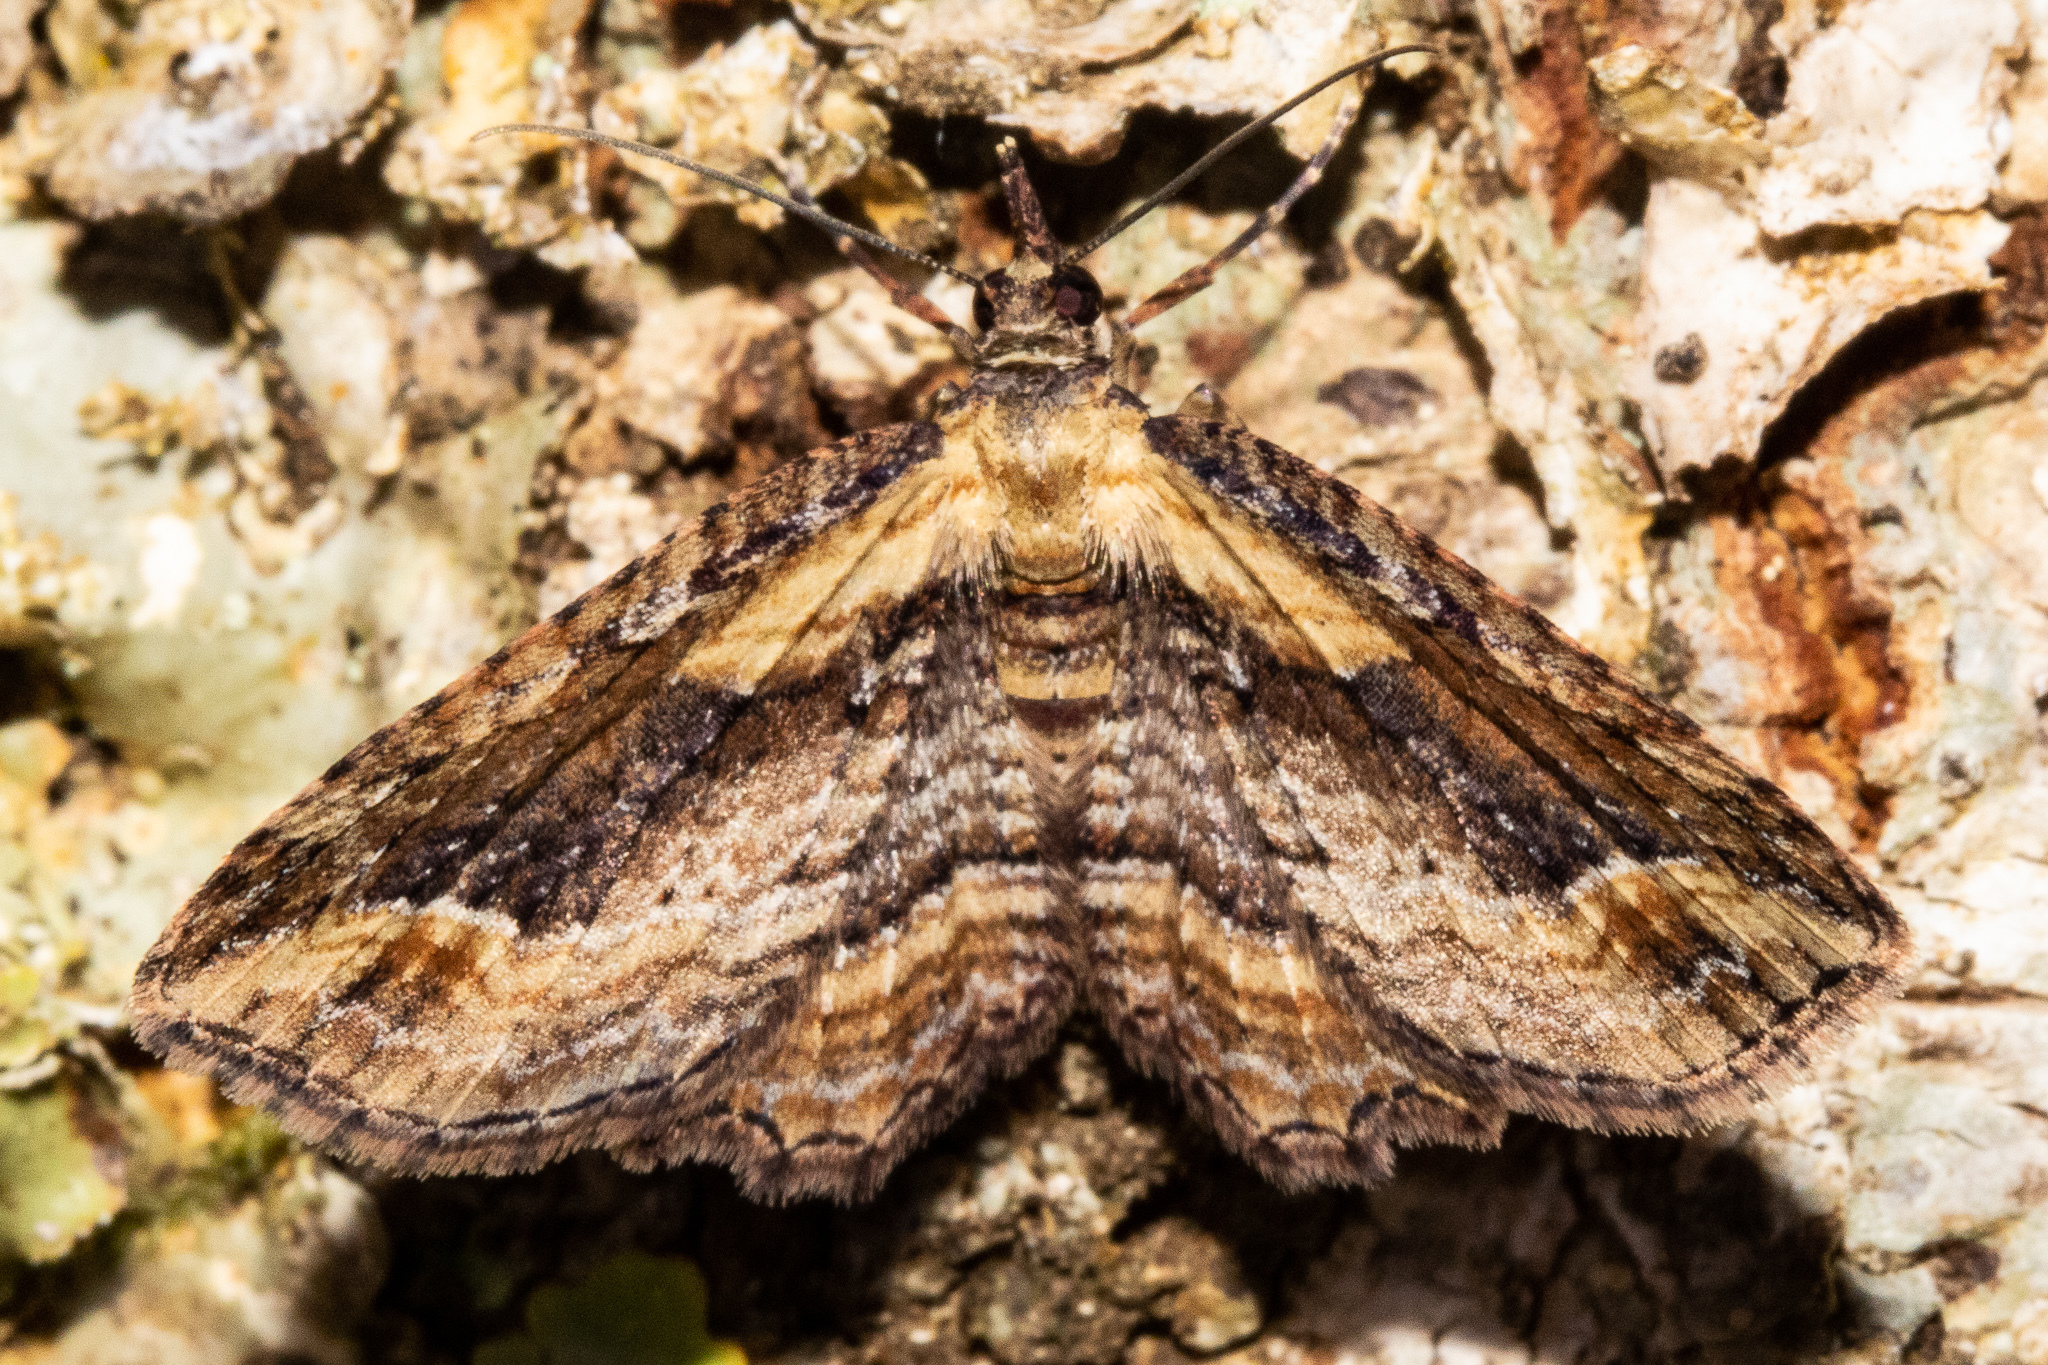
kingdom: Animalia
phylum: Arthropoda
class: Insecta
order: Lepidoptera
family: Geometridae
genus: Chloroclystis
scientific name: Chloroclystis filata
